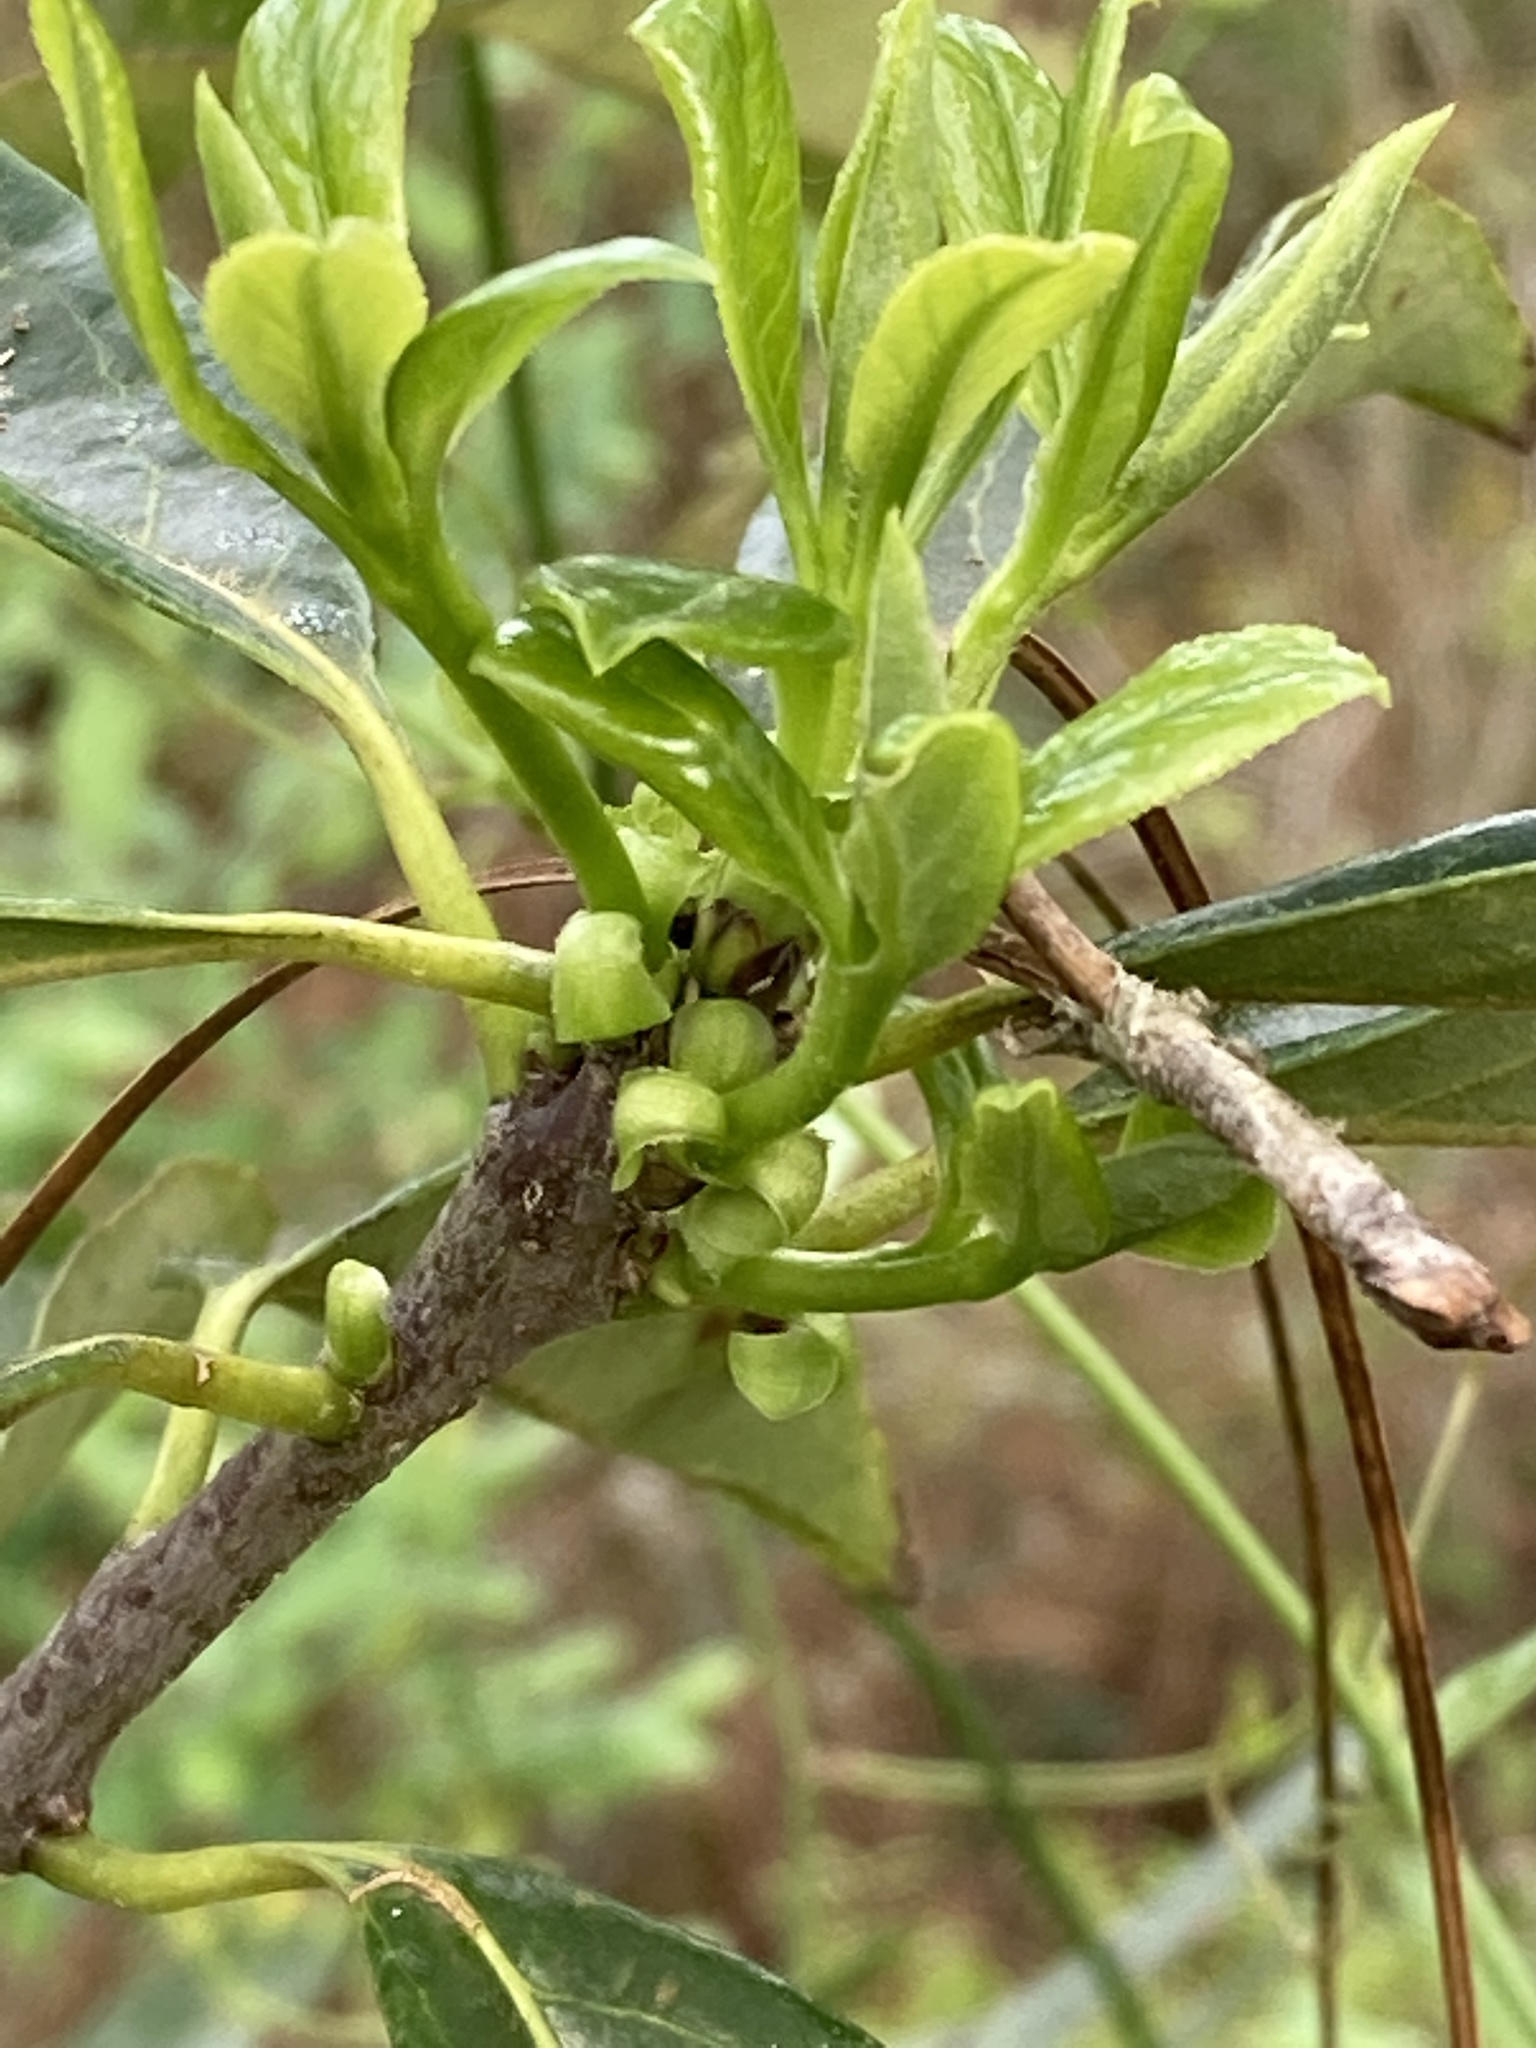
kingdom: Plantae
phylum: Tracheophyta
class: Magnoliopsida
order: Ericales
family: Symplocaceae
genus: Symplocos
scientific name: Symplocos tinctoria
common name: Horse-sugar
